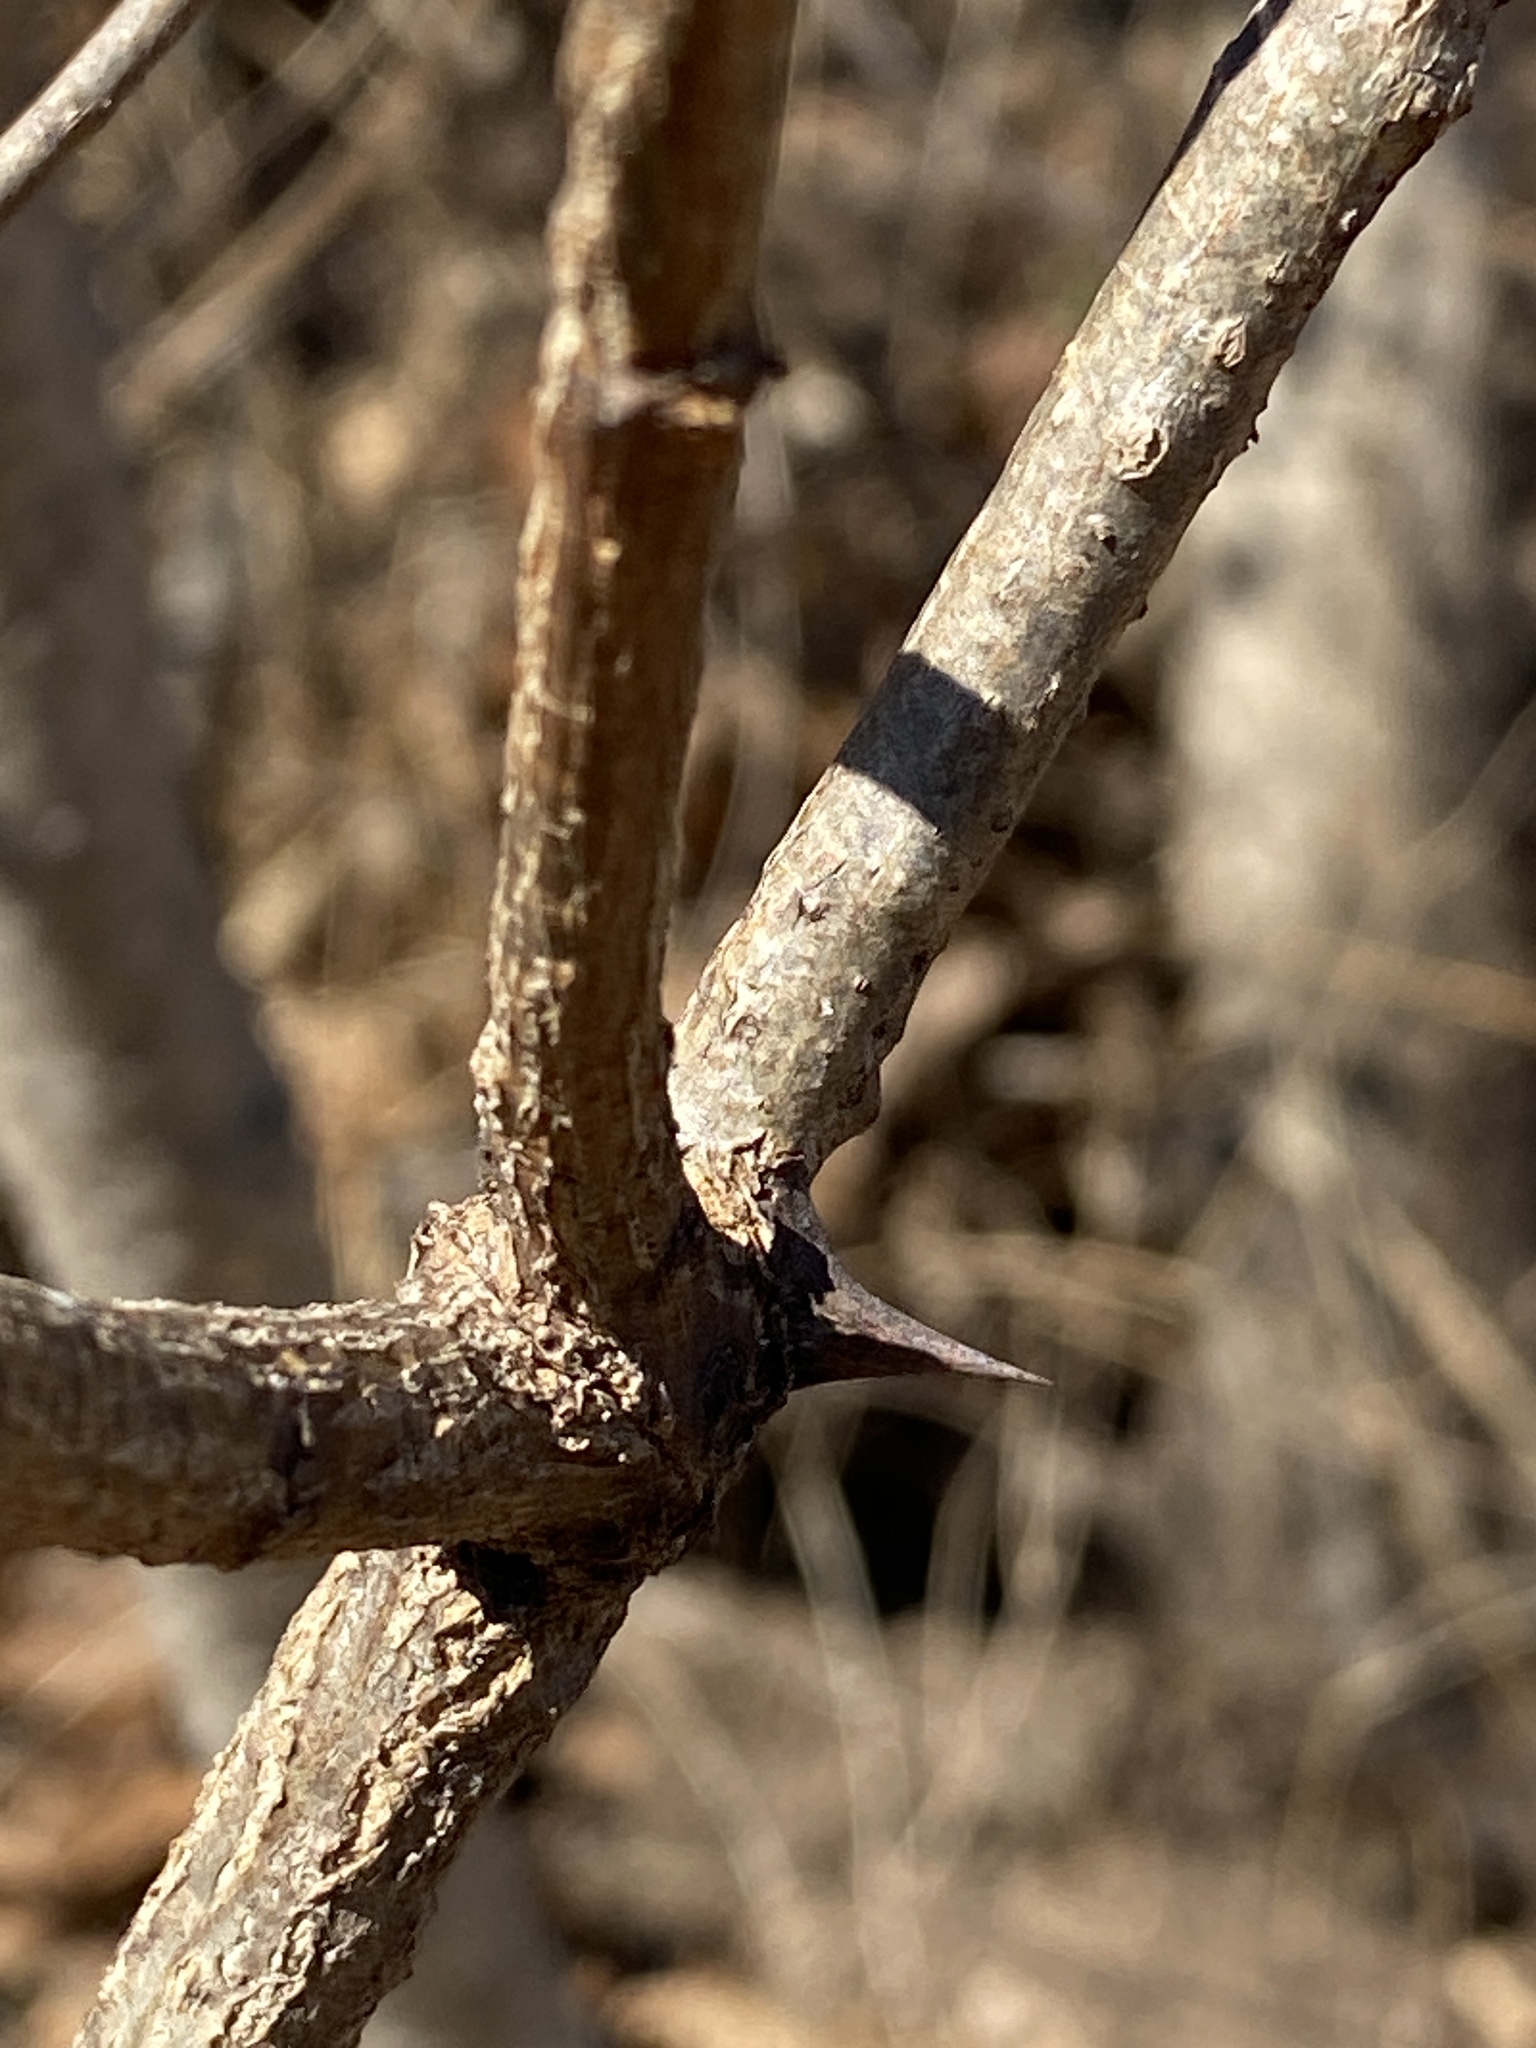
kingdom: Plantae
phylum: Tracheophyta
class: Magnoliopsida
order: Fabales
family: Fabaceae
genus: Robinia
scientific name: Robinia pseudoacacia
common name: Black locust
